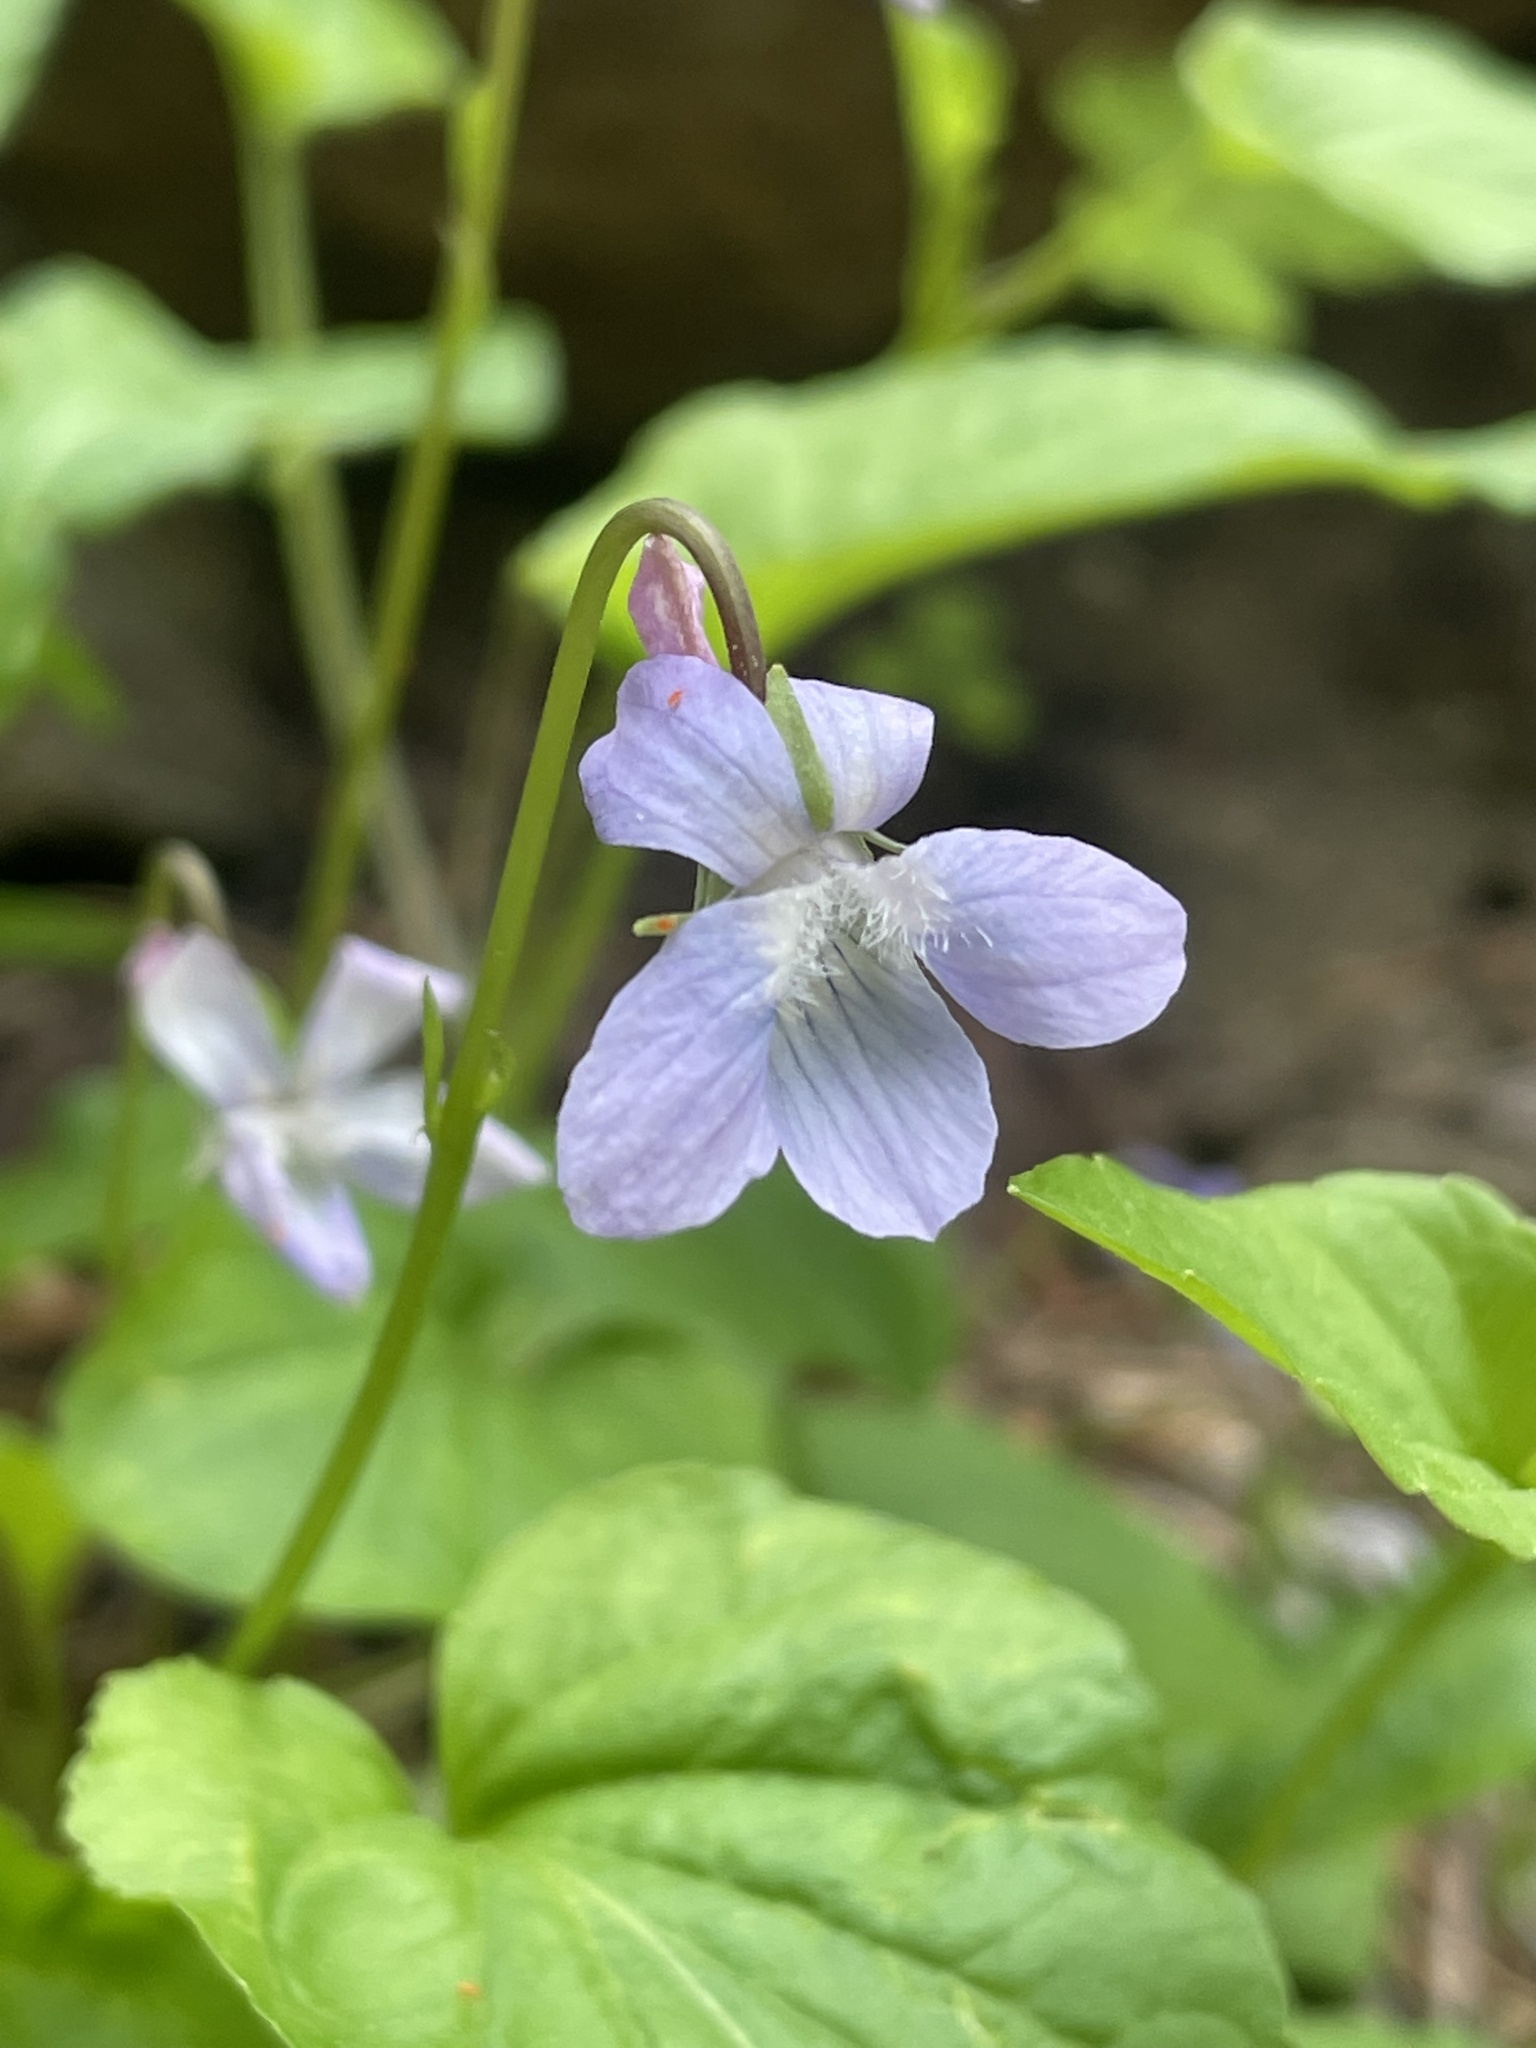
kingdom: Plantae
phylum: Tracheophyta
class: Magnoliopsida
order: Malpighiales
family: Violaceae
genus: Viola
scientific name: Viola adunca
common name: Sand violet
